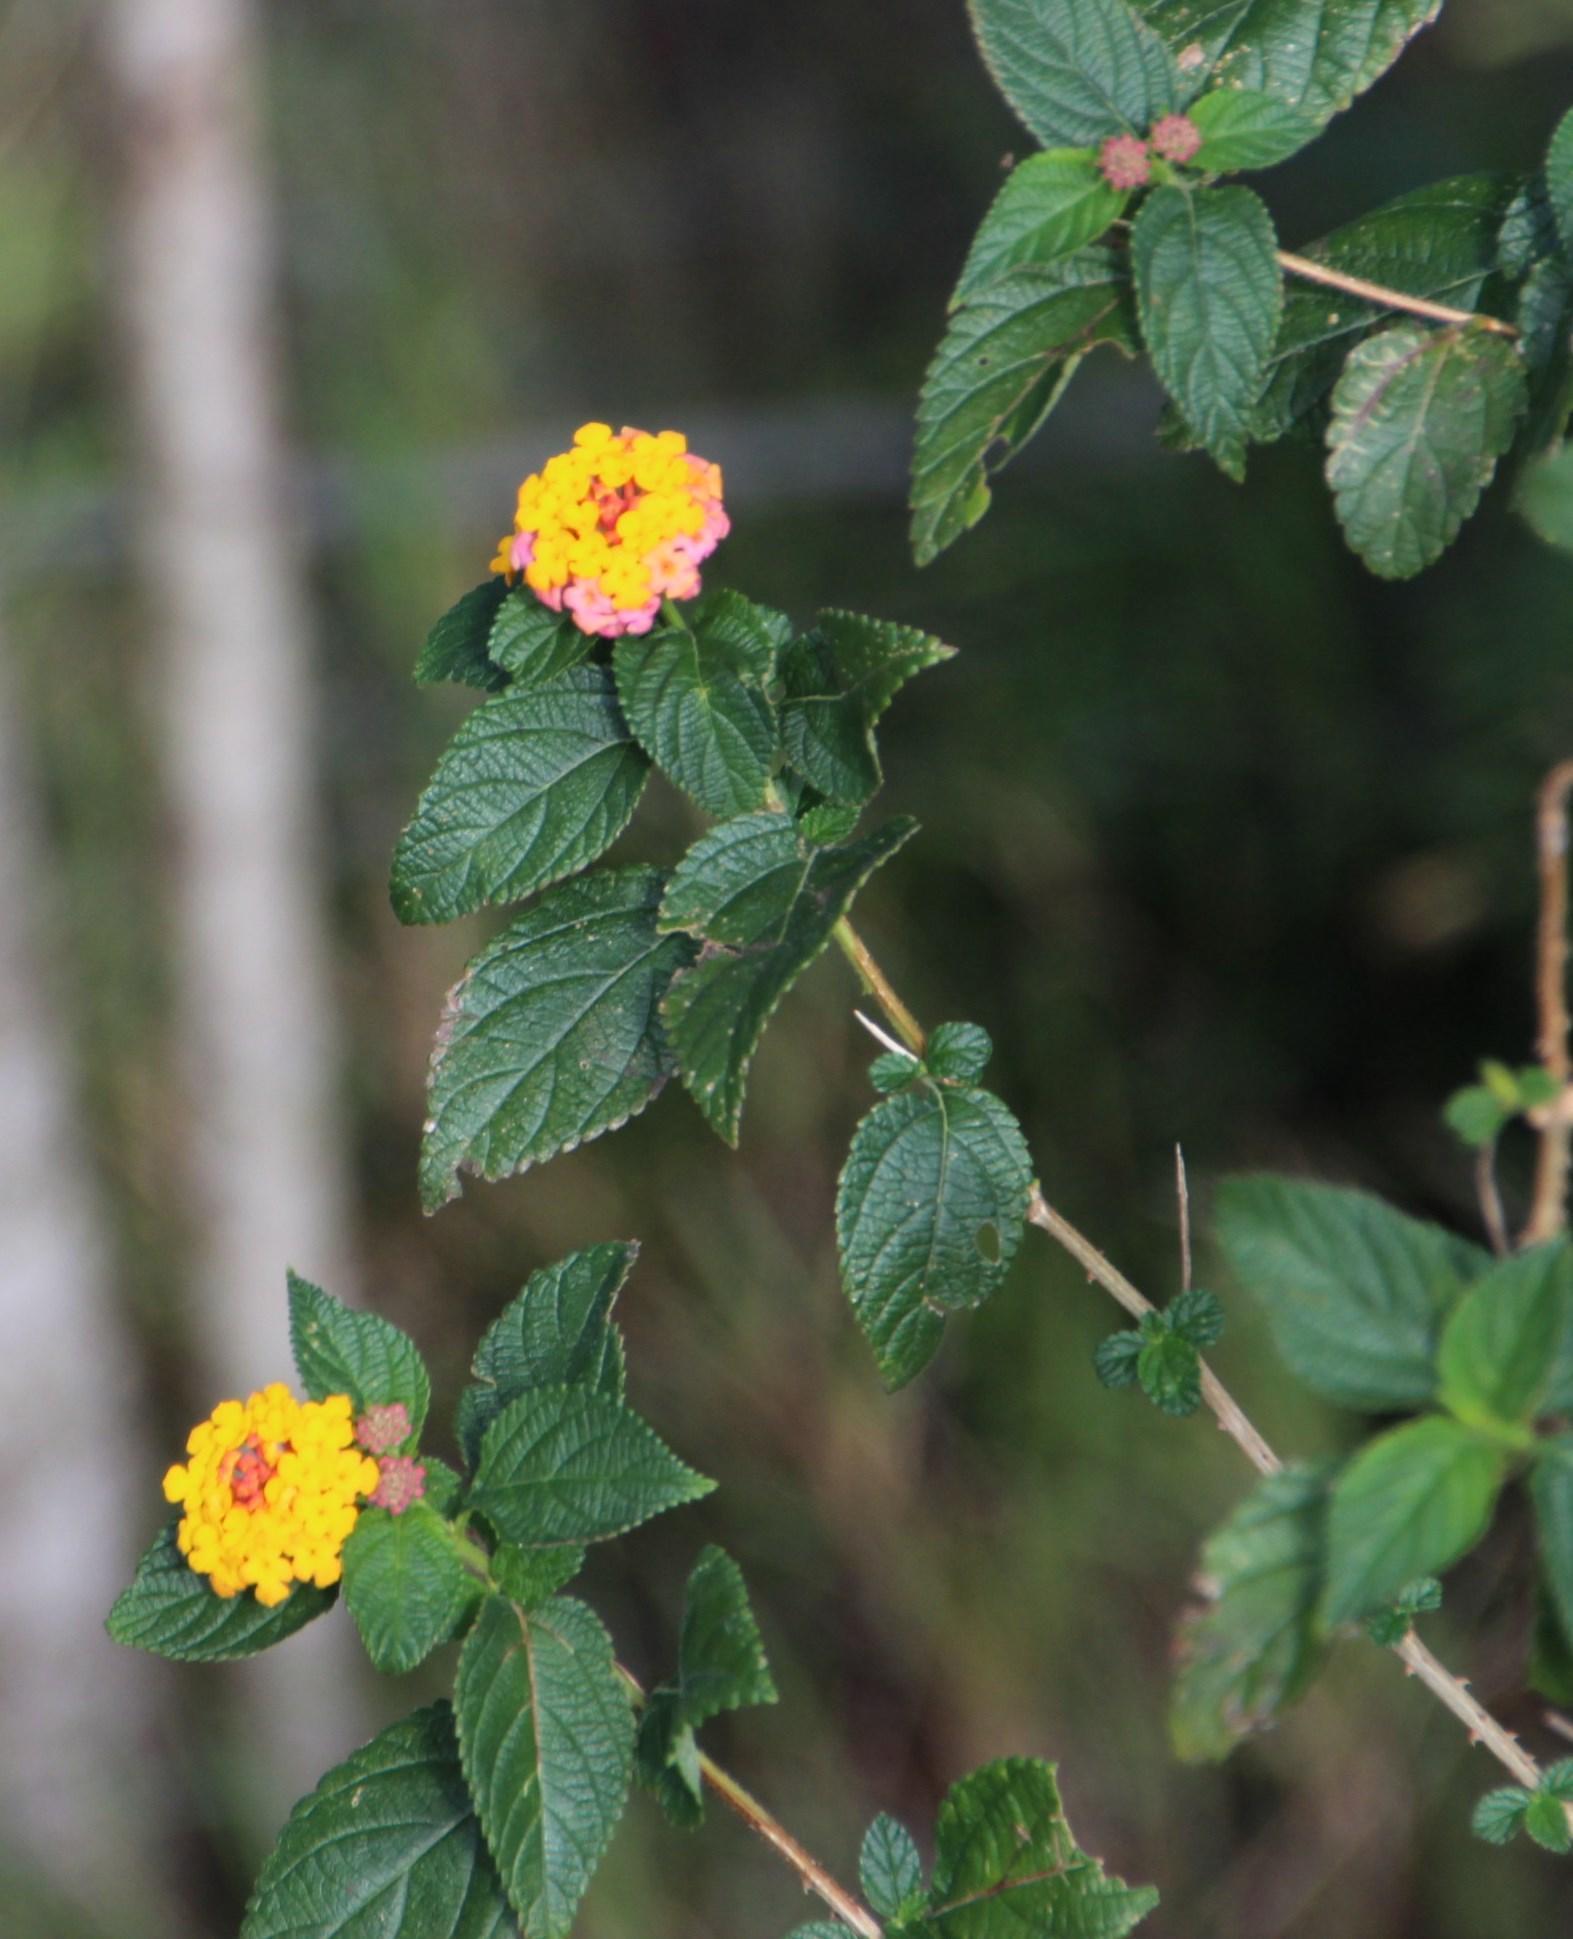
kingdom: Plantae
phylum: Tracheophyta
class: Magnoliopsida
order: Lamiales
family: Verbenaceae
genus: Lantana
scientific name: Lantana camara
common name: Lantana
